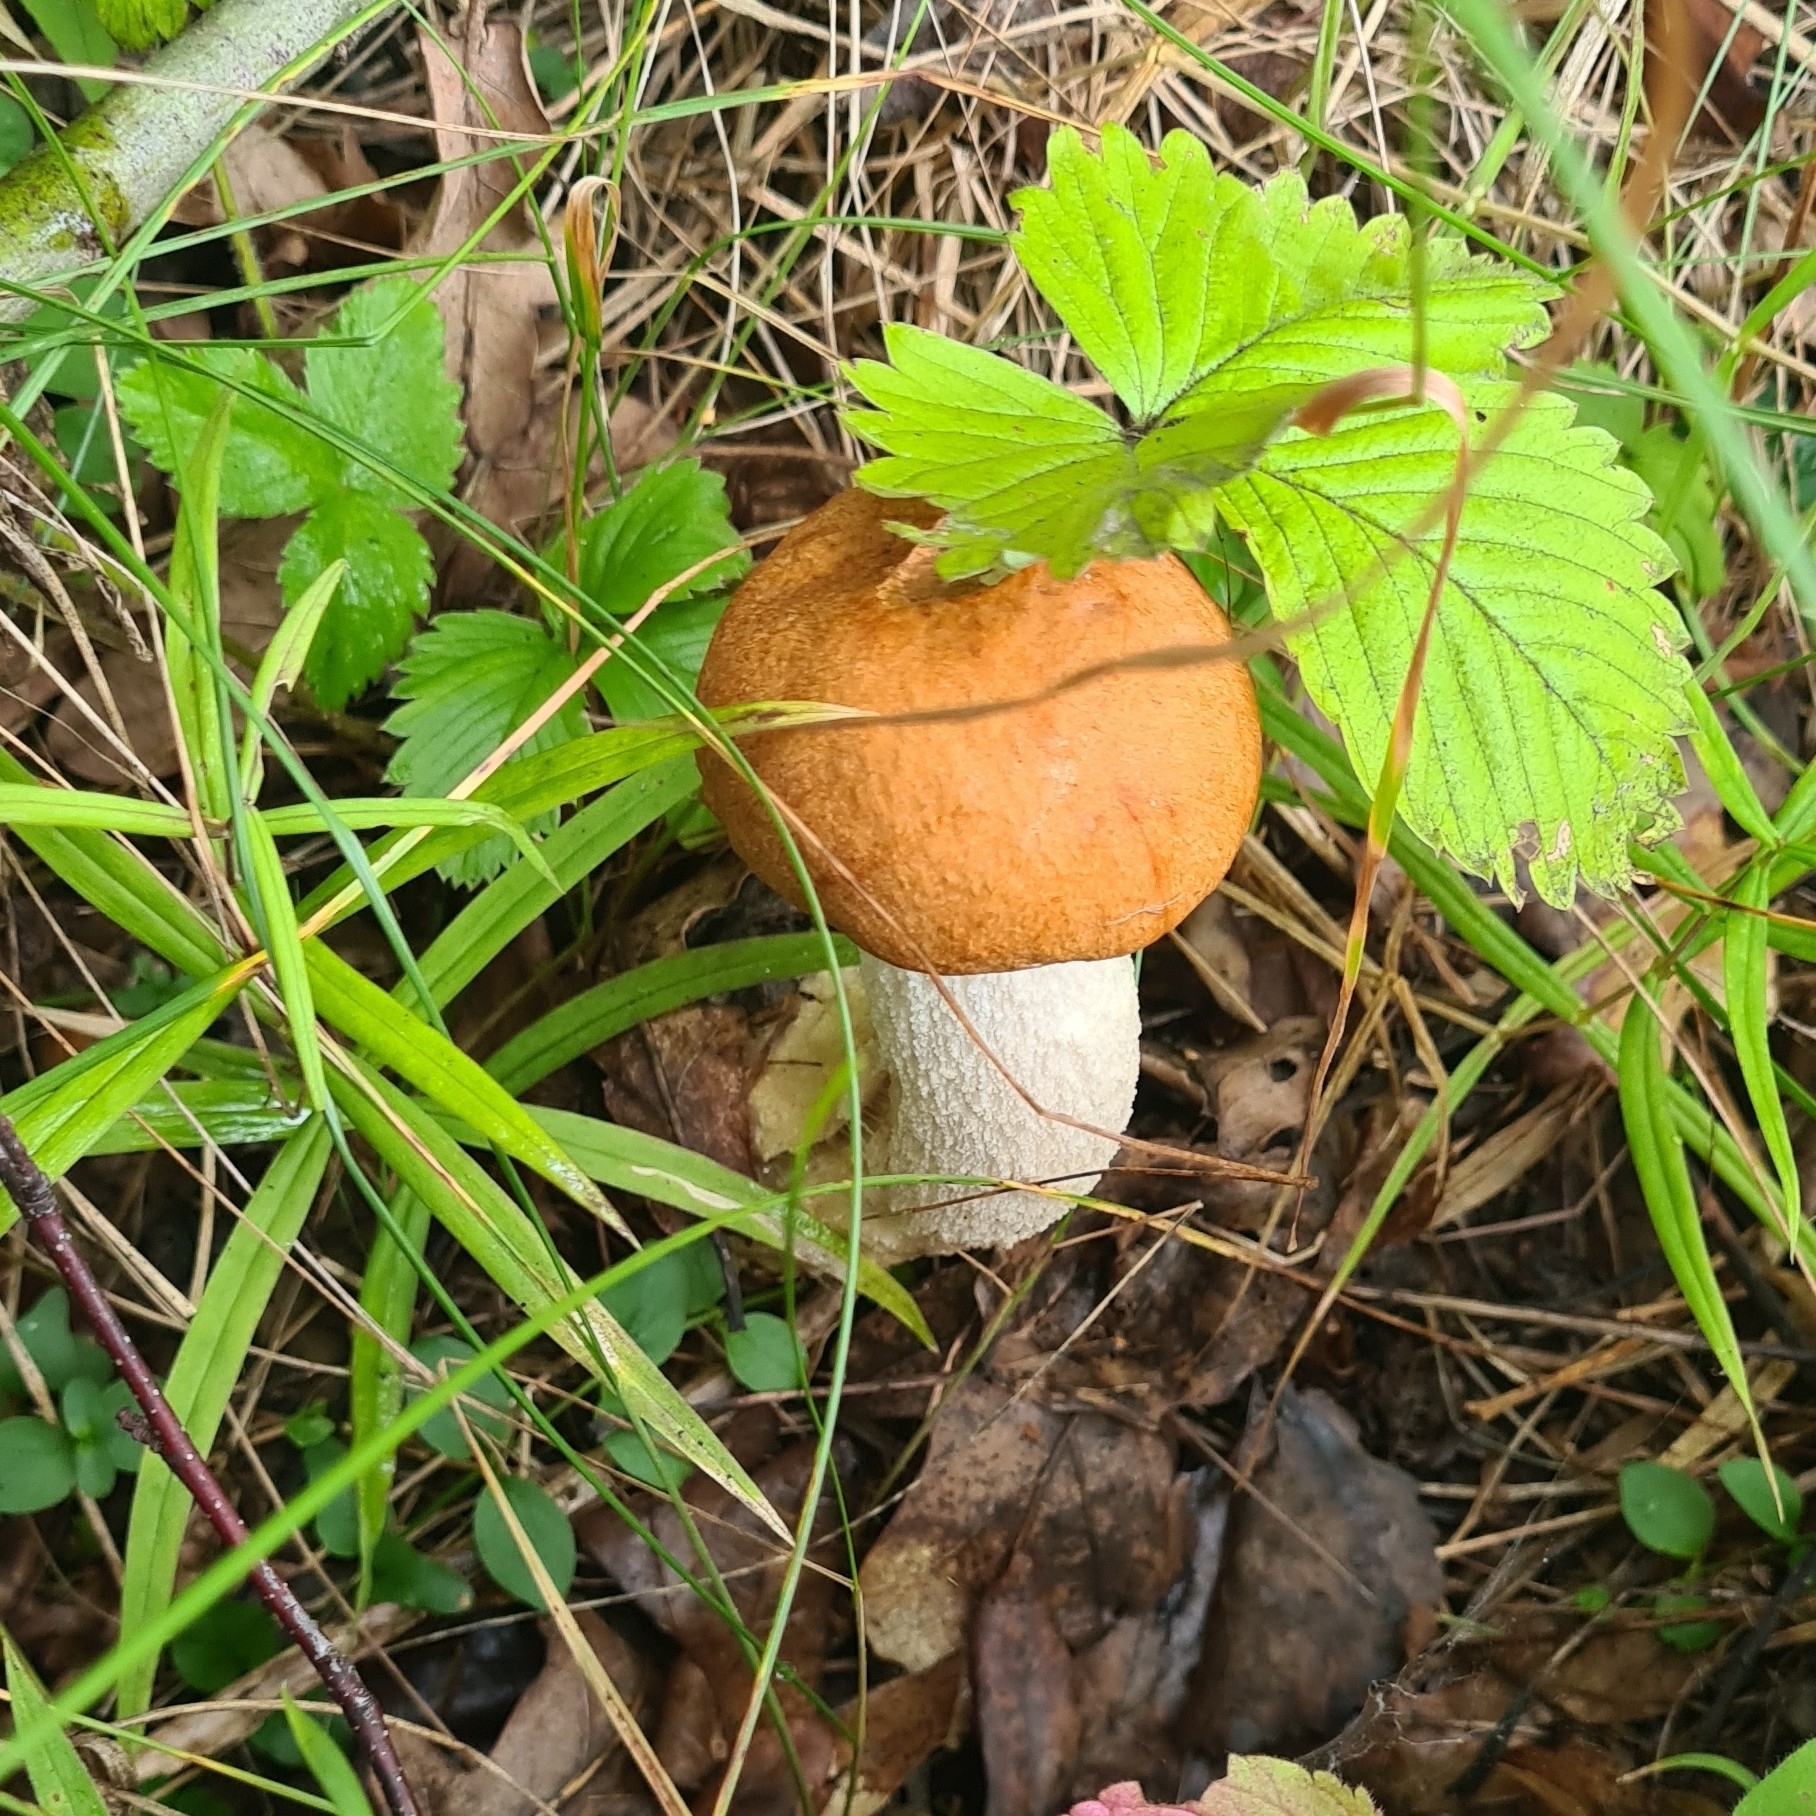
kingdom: Fungi
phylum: Basidiomycota
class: Agaricomycetes
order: Boletales
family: Boletaceae
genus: Leccinum
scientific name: Leccinum albostipitatum
